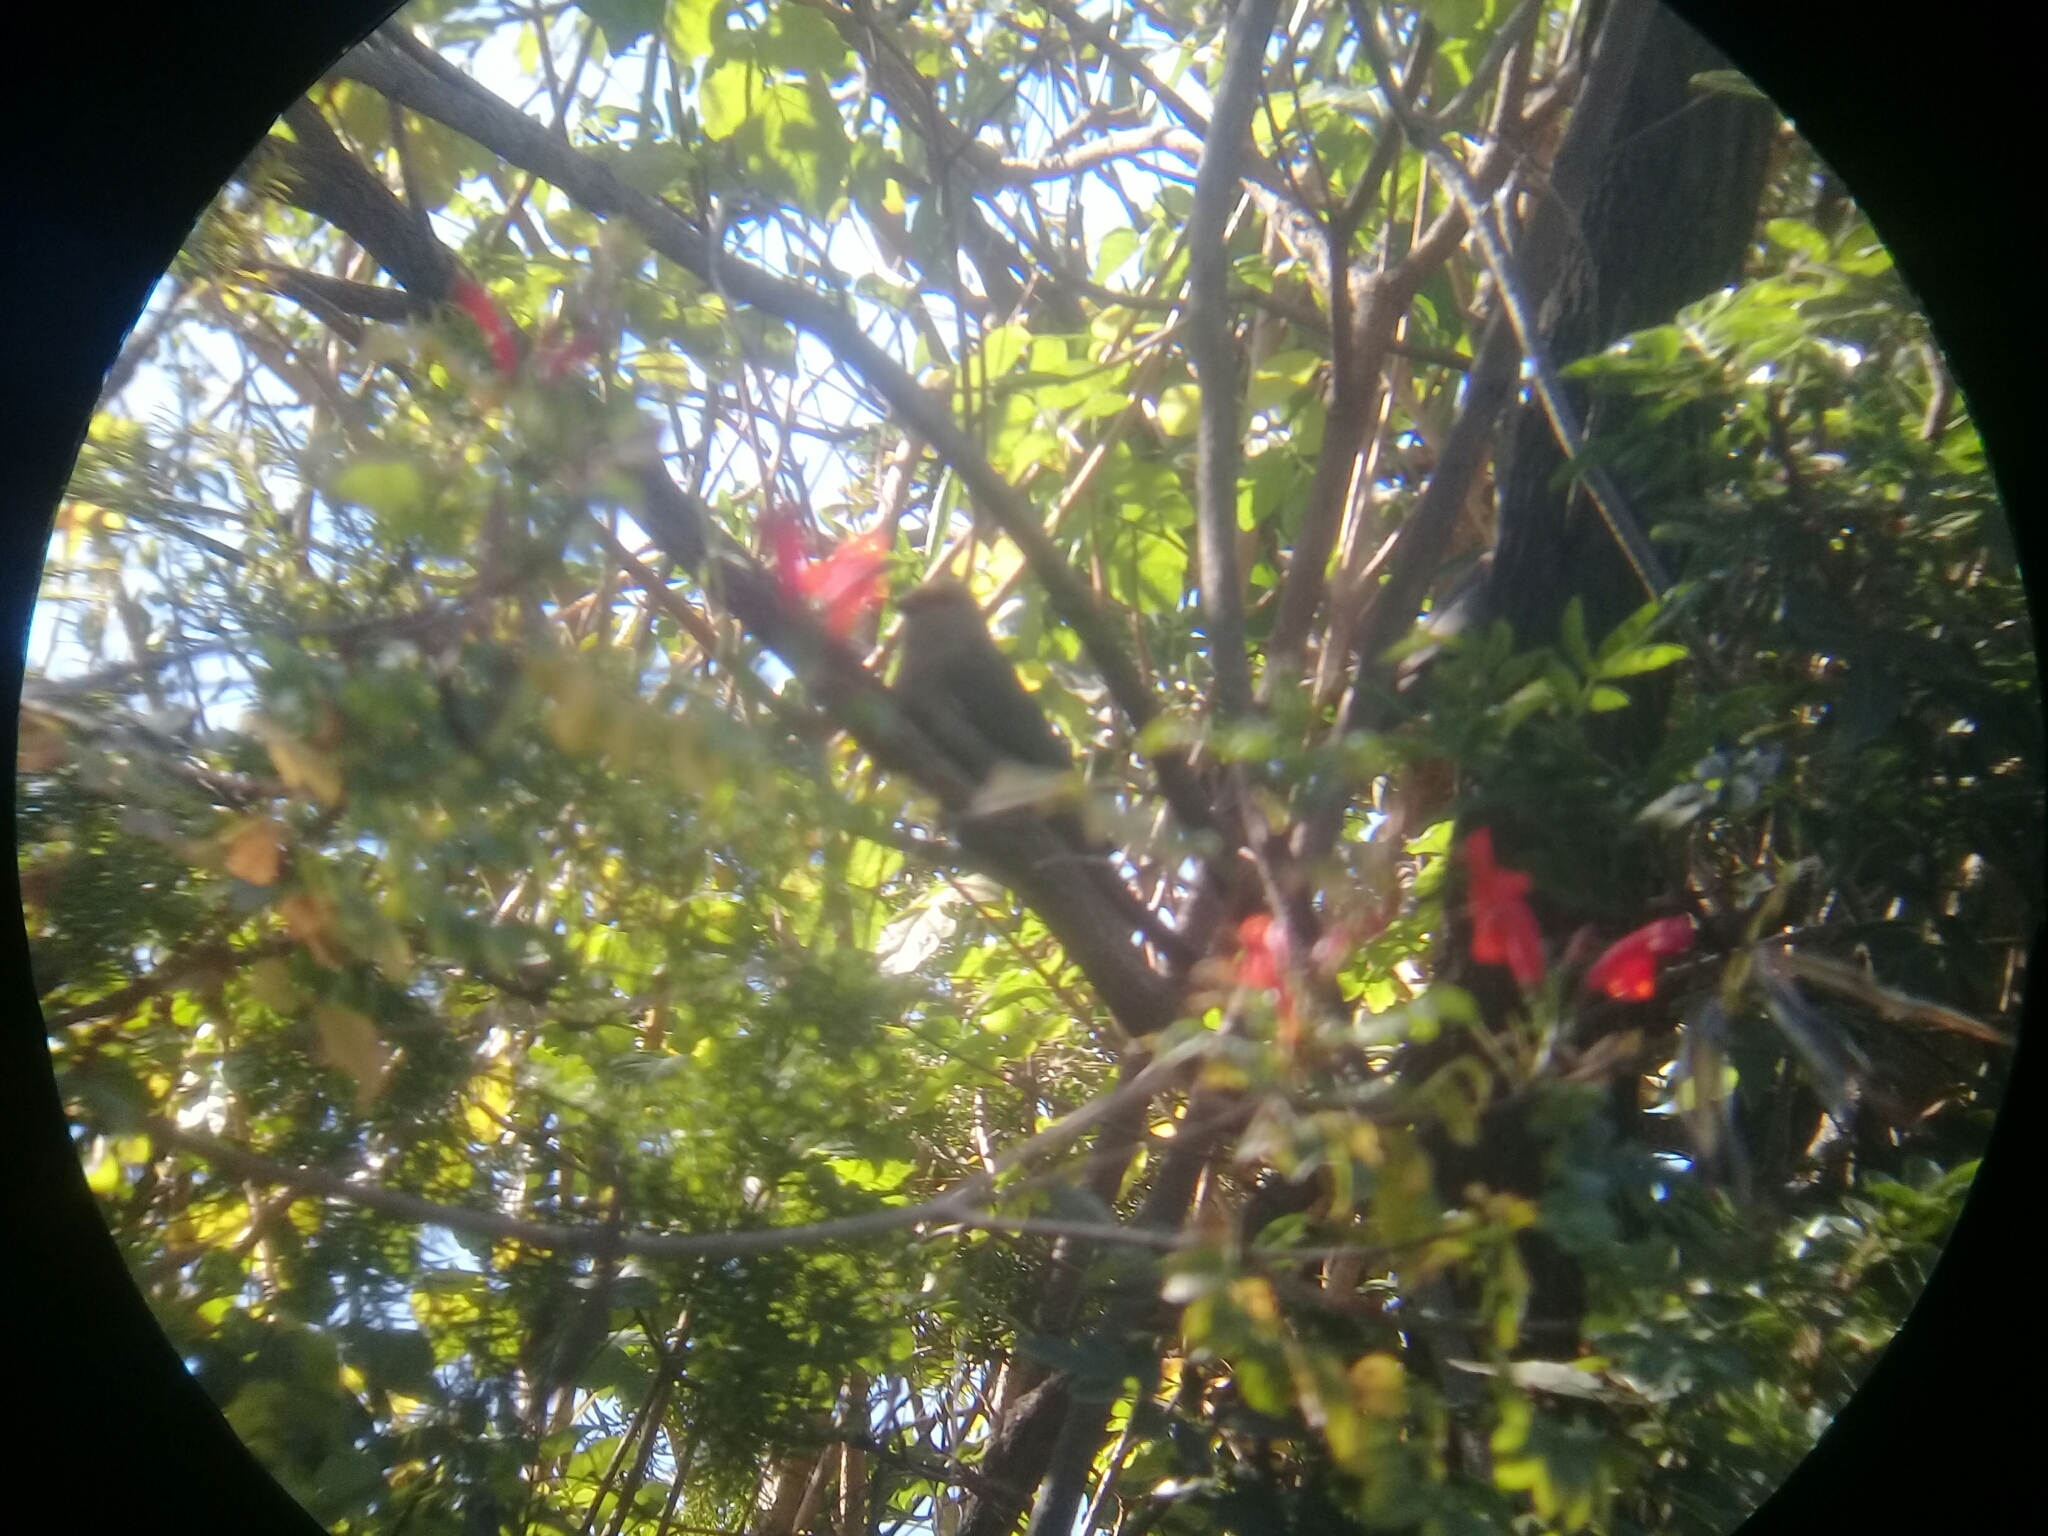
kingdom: Animalia
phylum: Chordata
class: Aves
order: Coliiformes
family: Coliidae
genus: Urocolius
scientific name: Urocolius indicus
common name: Red-faced mousebird
